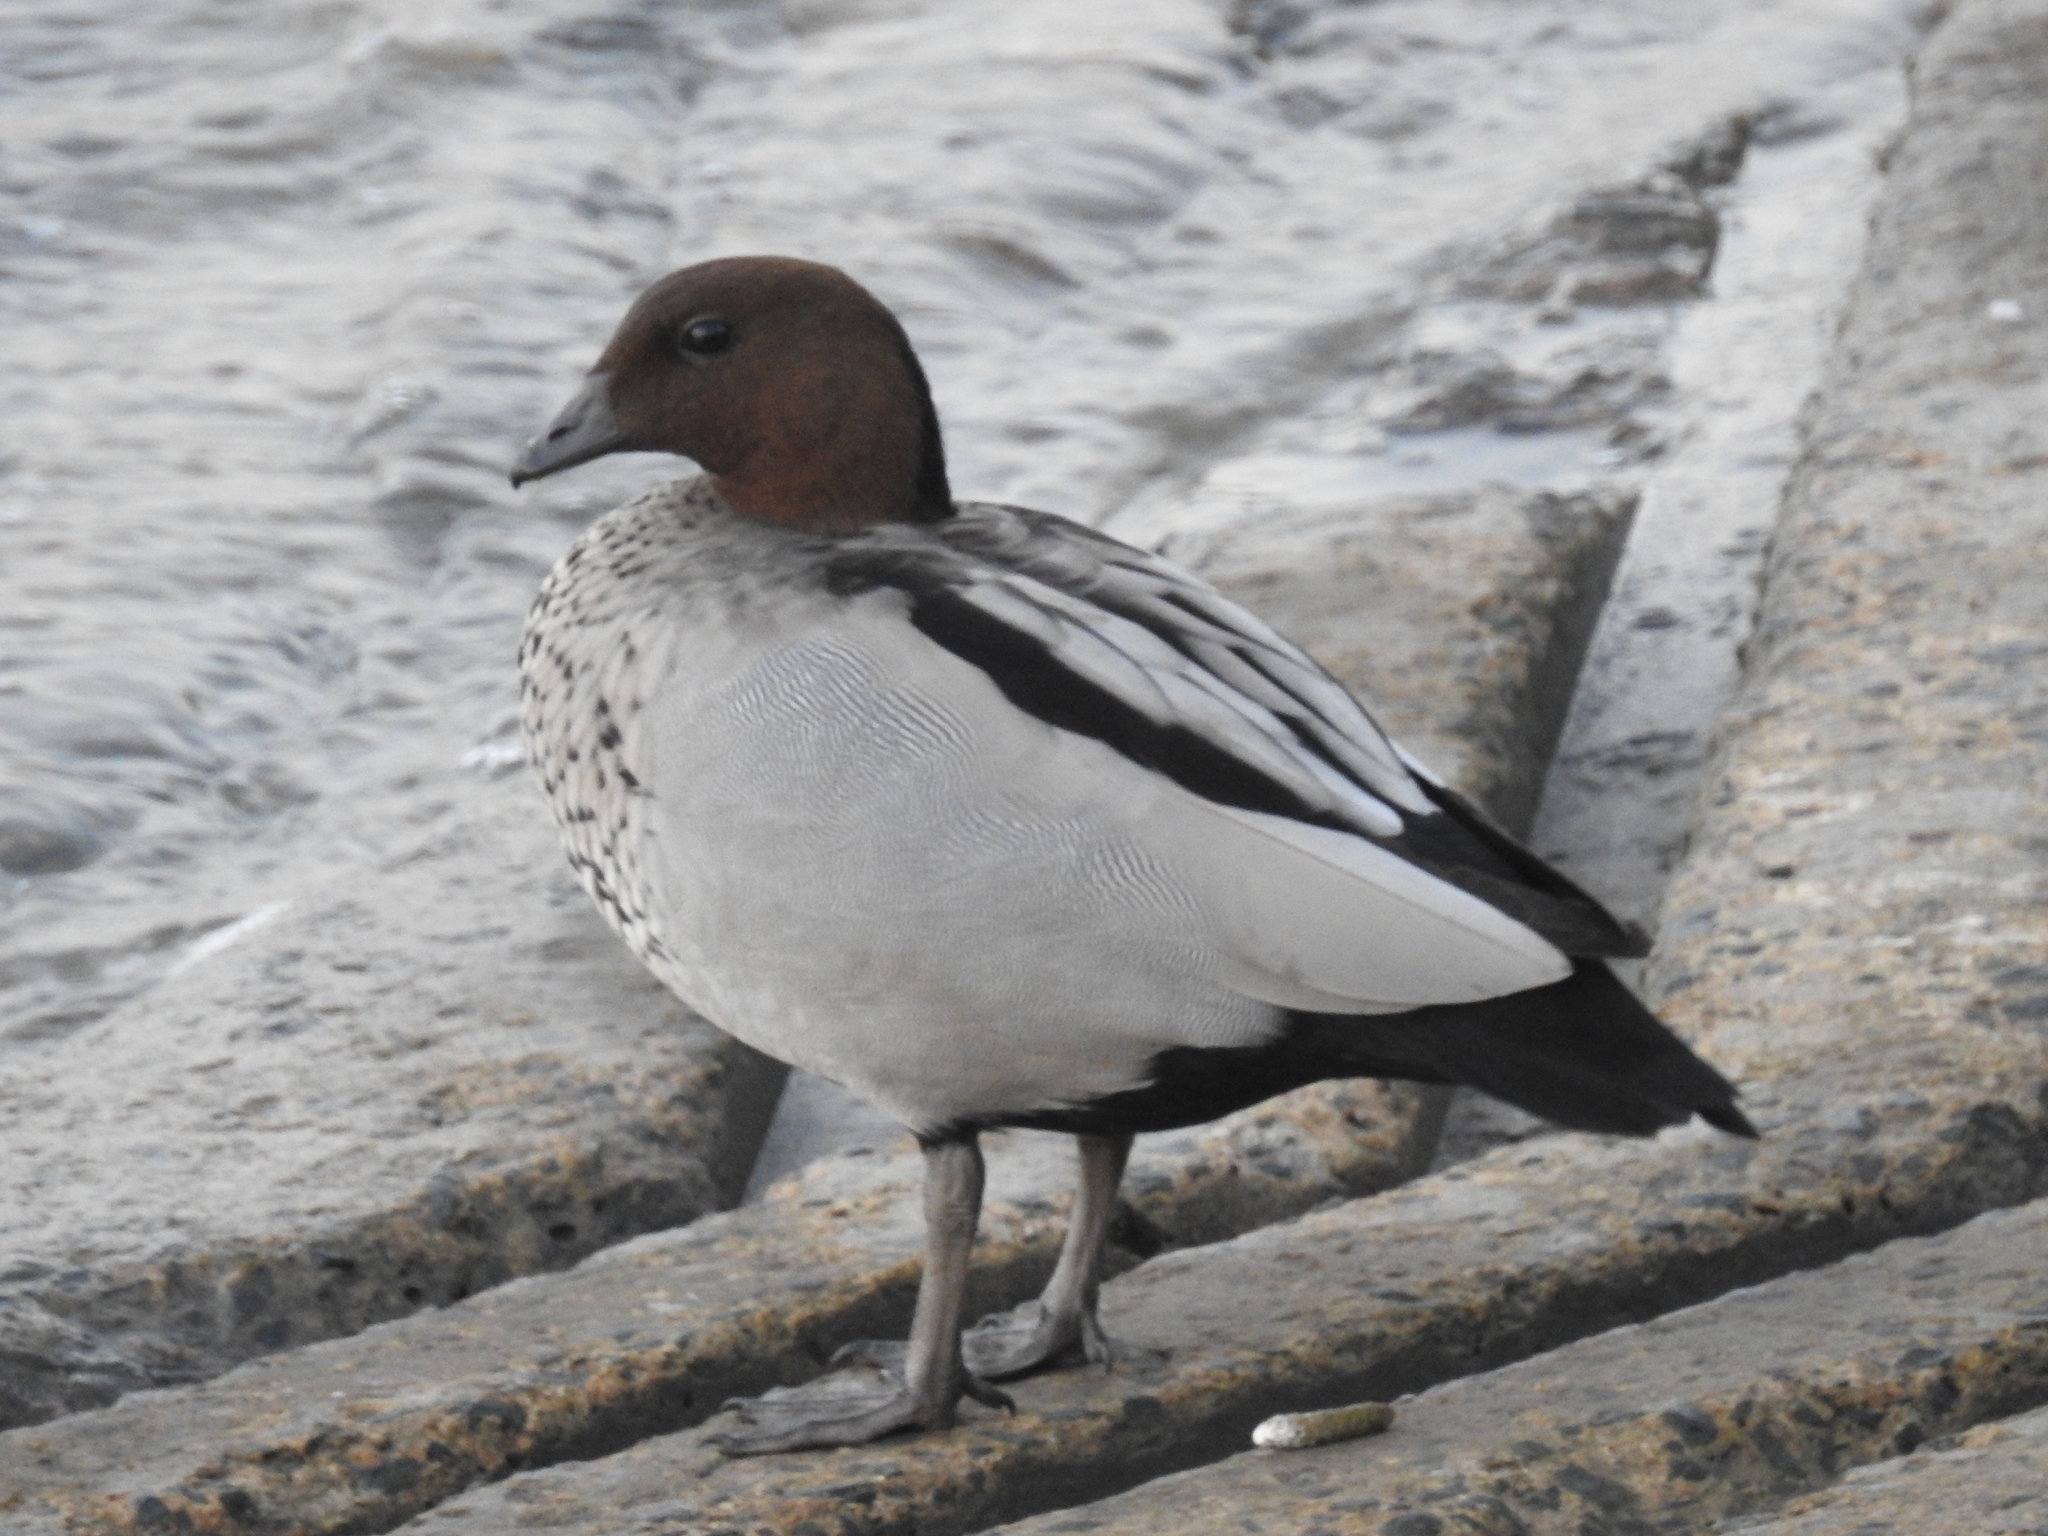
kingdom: Animalia
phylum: Chordata
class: Aves
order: Anseriformes
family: Anatidae
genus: Chenonetta
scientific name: Chenonetta jubata
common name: Maned duck
